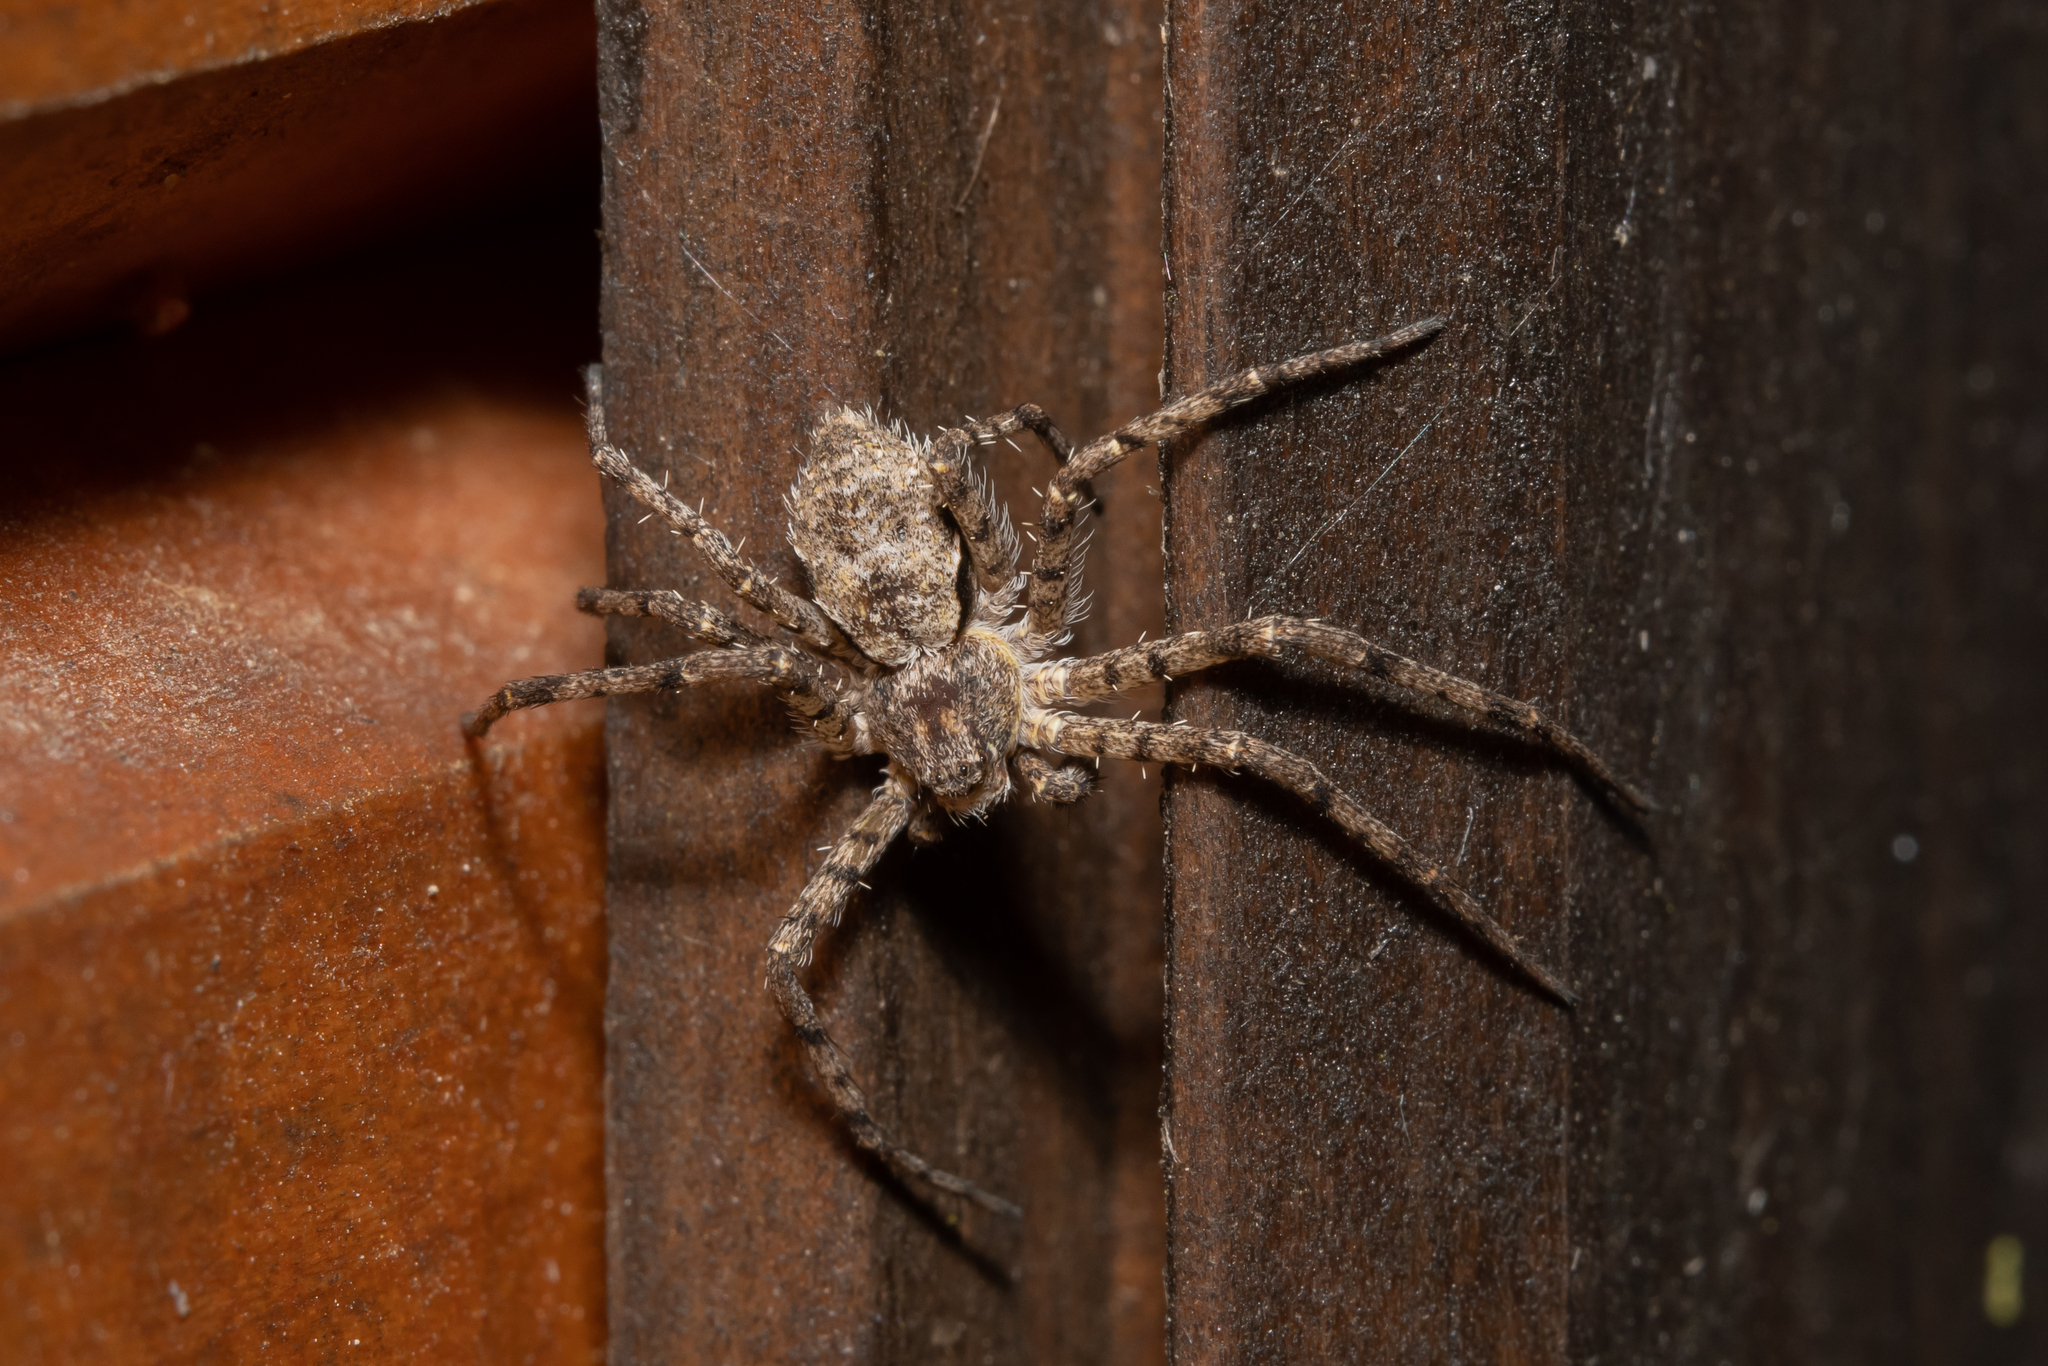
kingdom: Animalia
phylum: Arthropoda
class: Arachnida
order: Araneae
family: Philodromidae
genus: Philodromus
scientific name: Philodromus margaritatus
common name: Lichen running-spider
